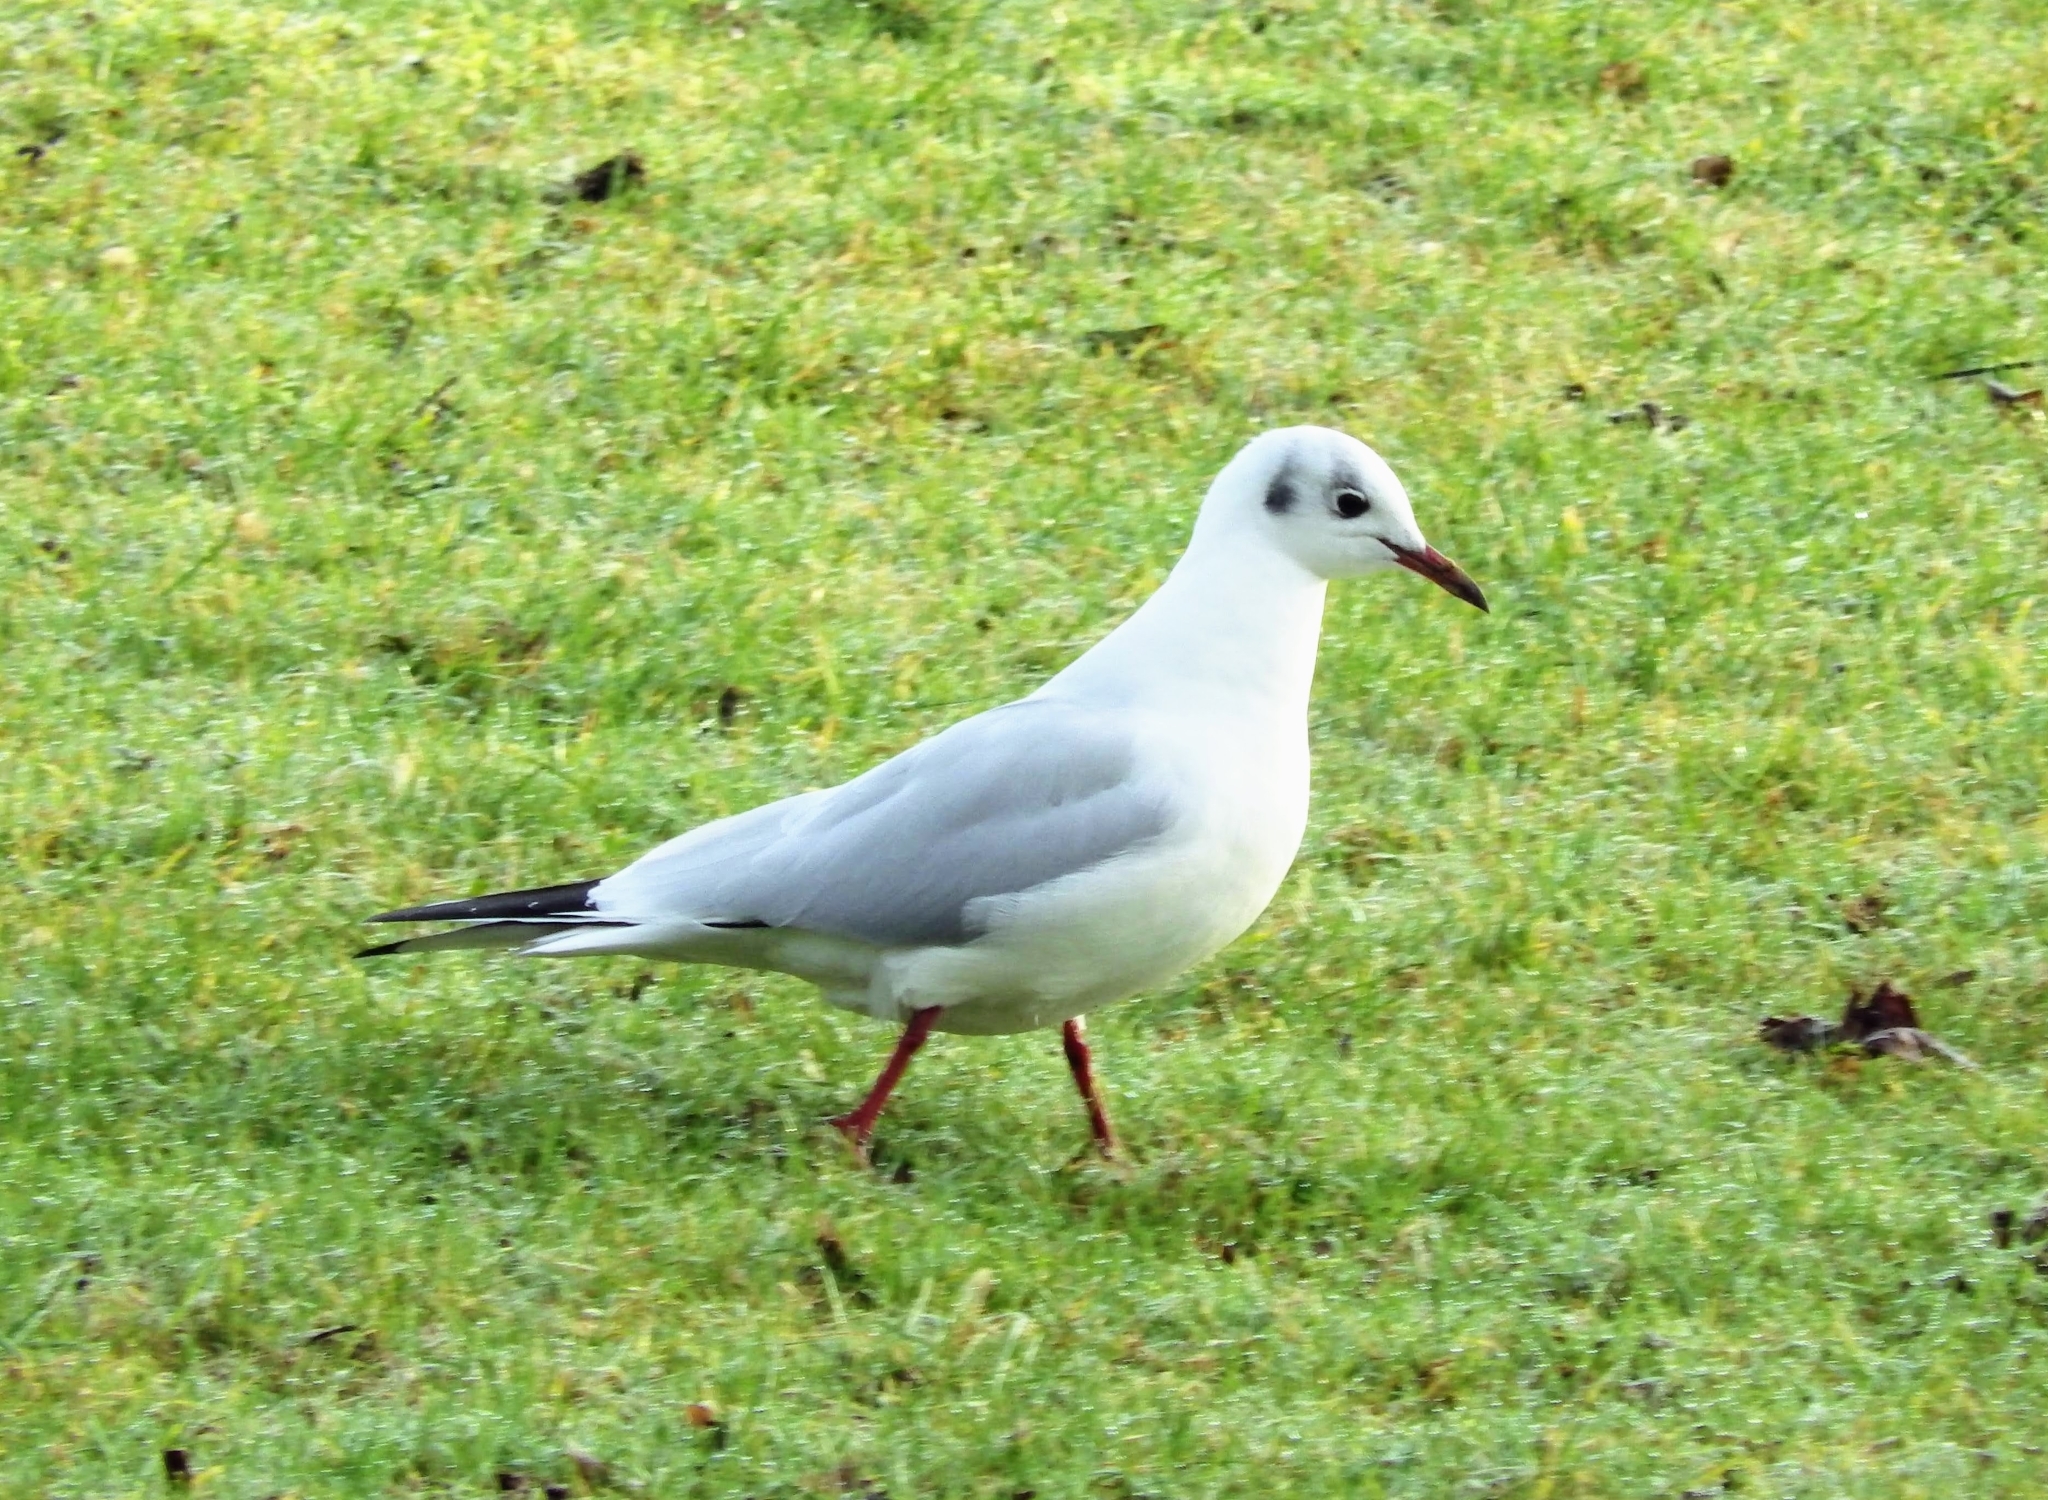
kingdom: Animalia
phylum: Chordata
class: Aves
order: Charadriiformes
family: Laridae
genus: Chroicocephalus
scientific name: Chroicocephalus ridibundus
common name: Black-headed gull
